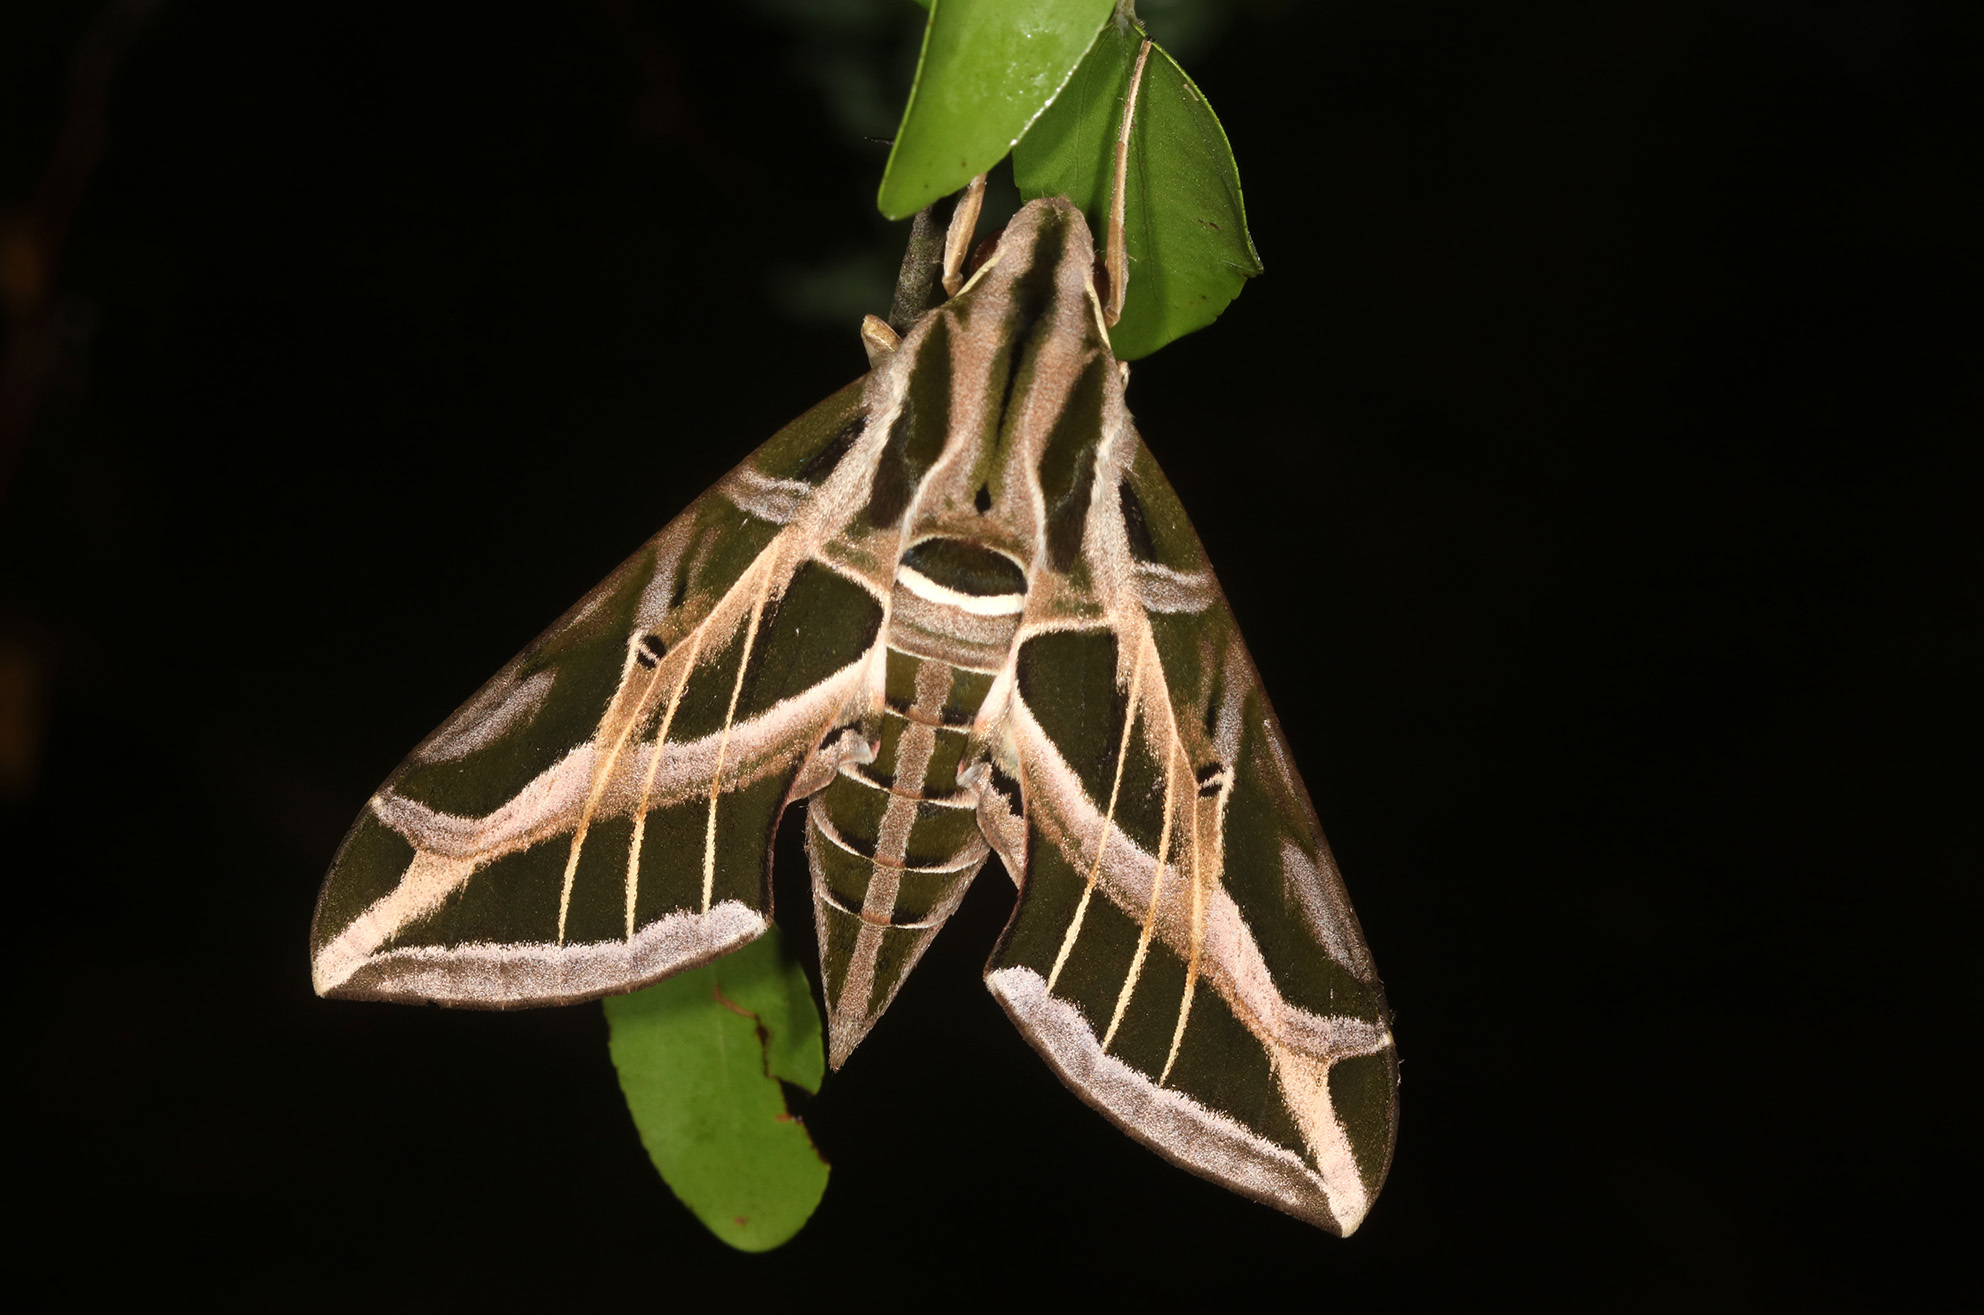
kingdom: Animalia
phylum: Arthropoda
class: Insecta
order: Lepidoptera
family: Sphingidae
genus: Eumorpha
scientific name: Eumorpha vitis
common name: Vine sphinx
